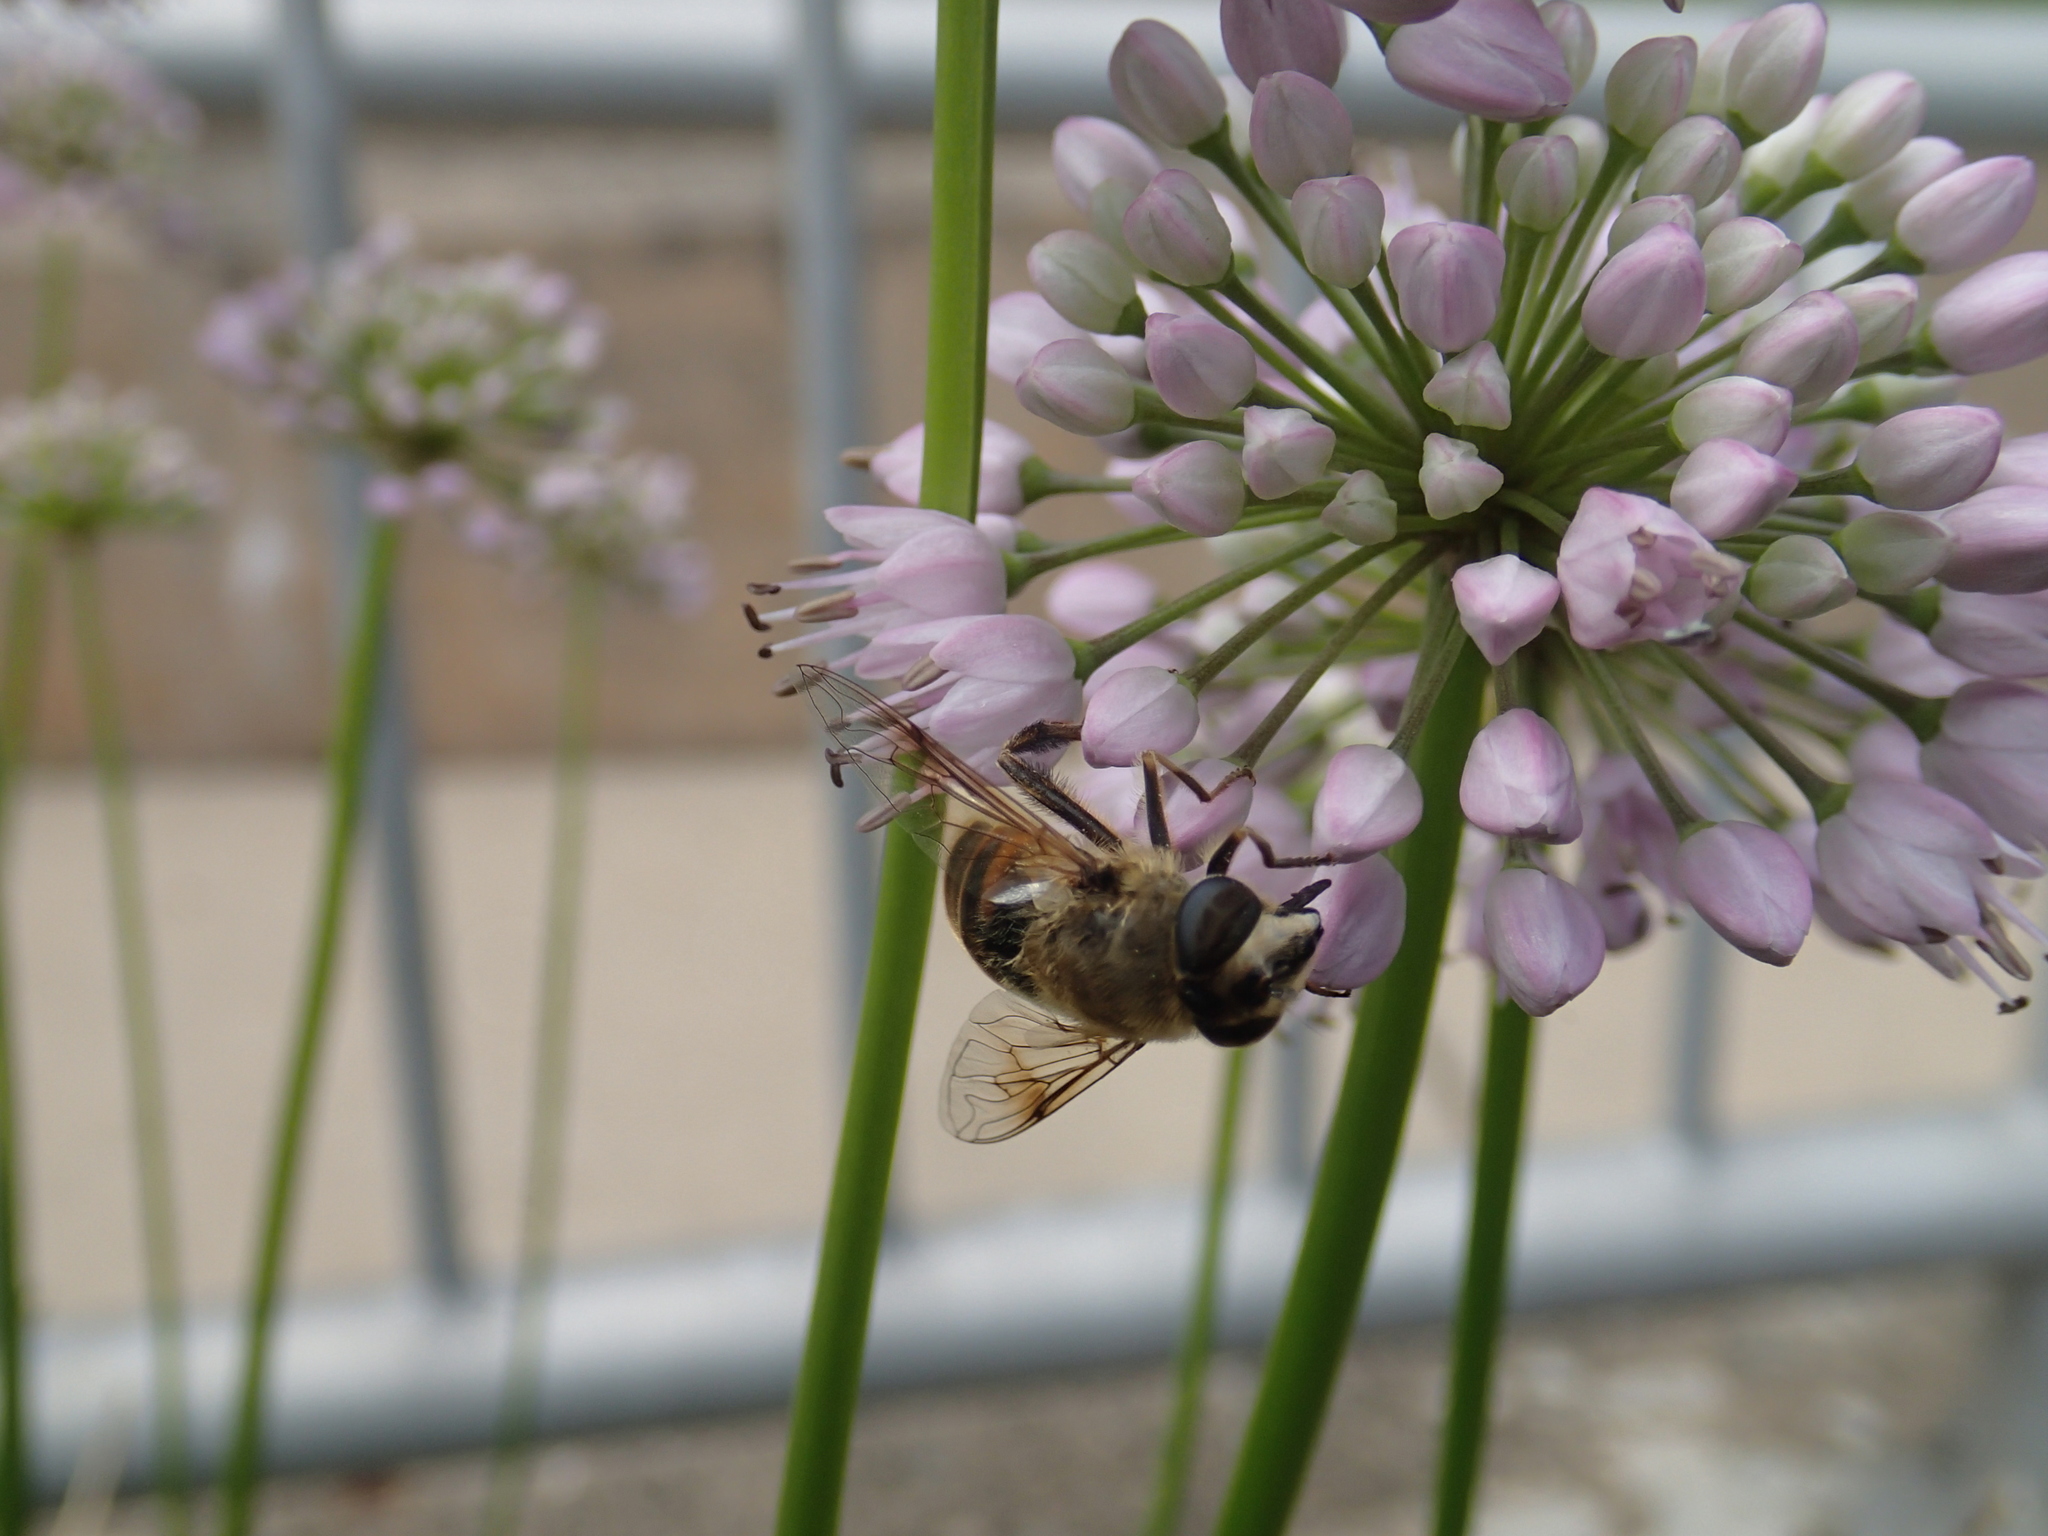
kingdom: Animalia
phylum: Arthropoda
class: Insecta
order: Diptera
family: Syrphidae
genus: Eristalis
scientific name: Eristalis tenax
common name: Drone fly
